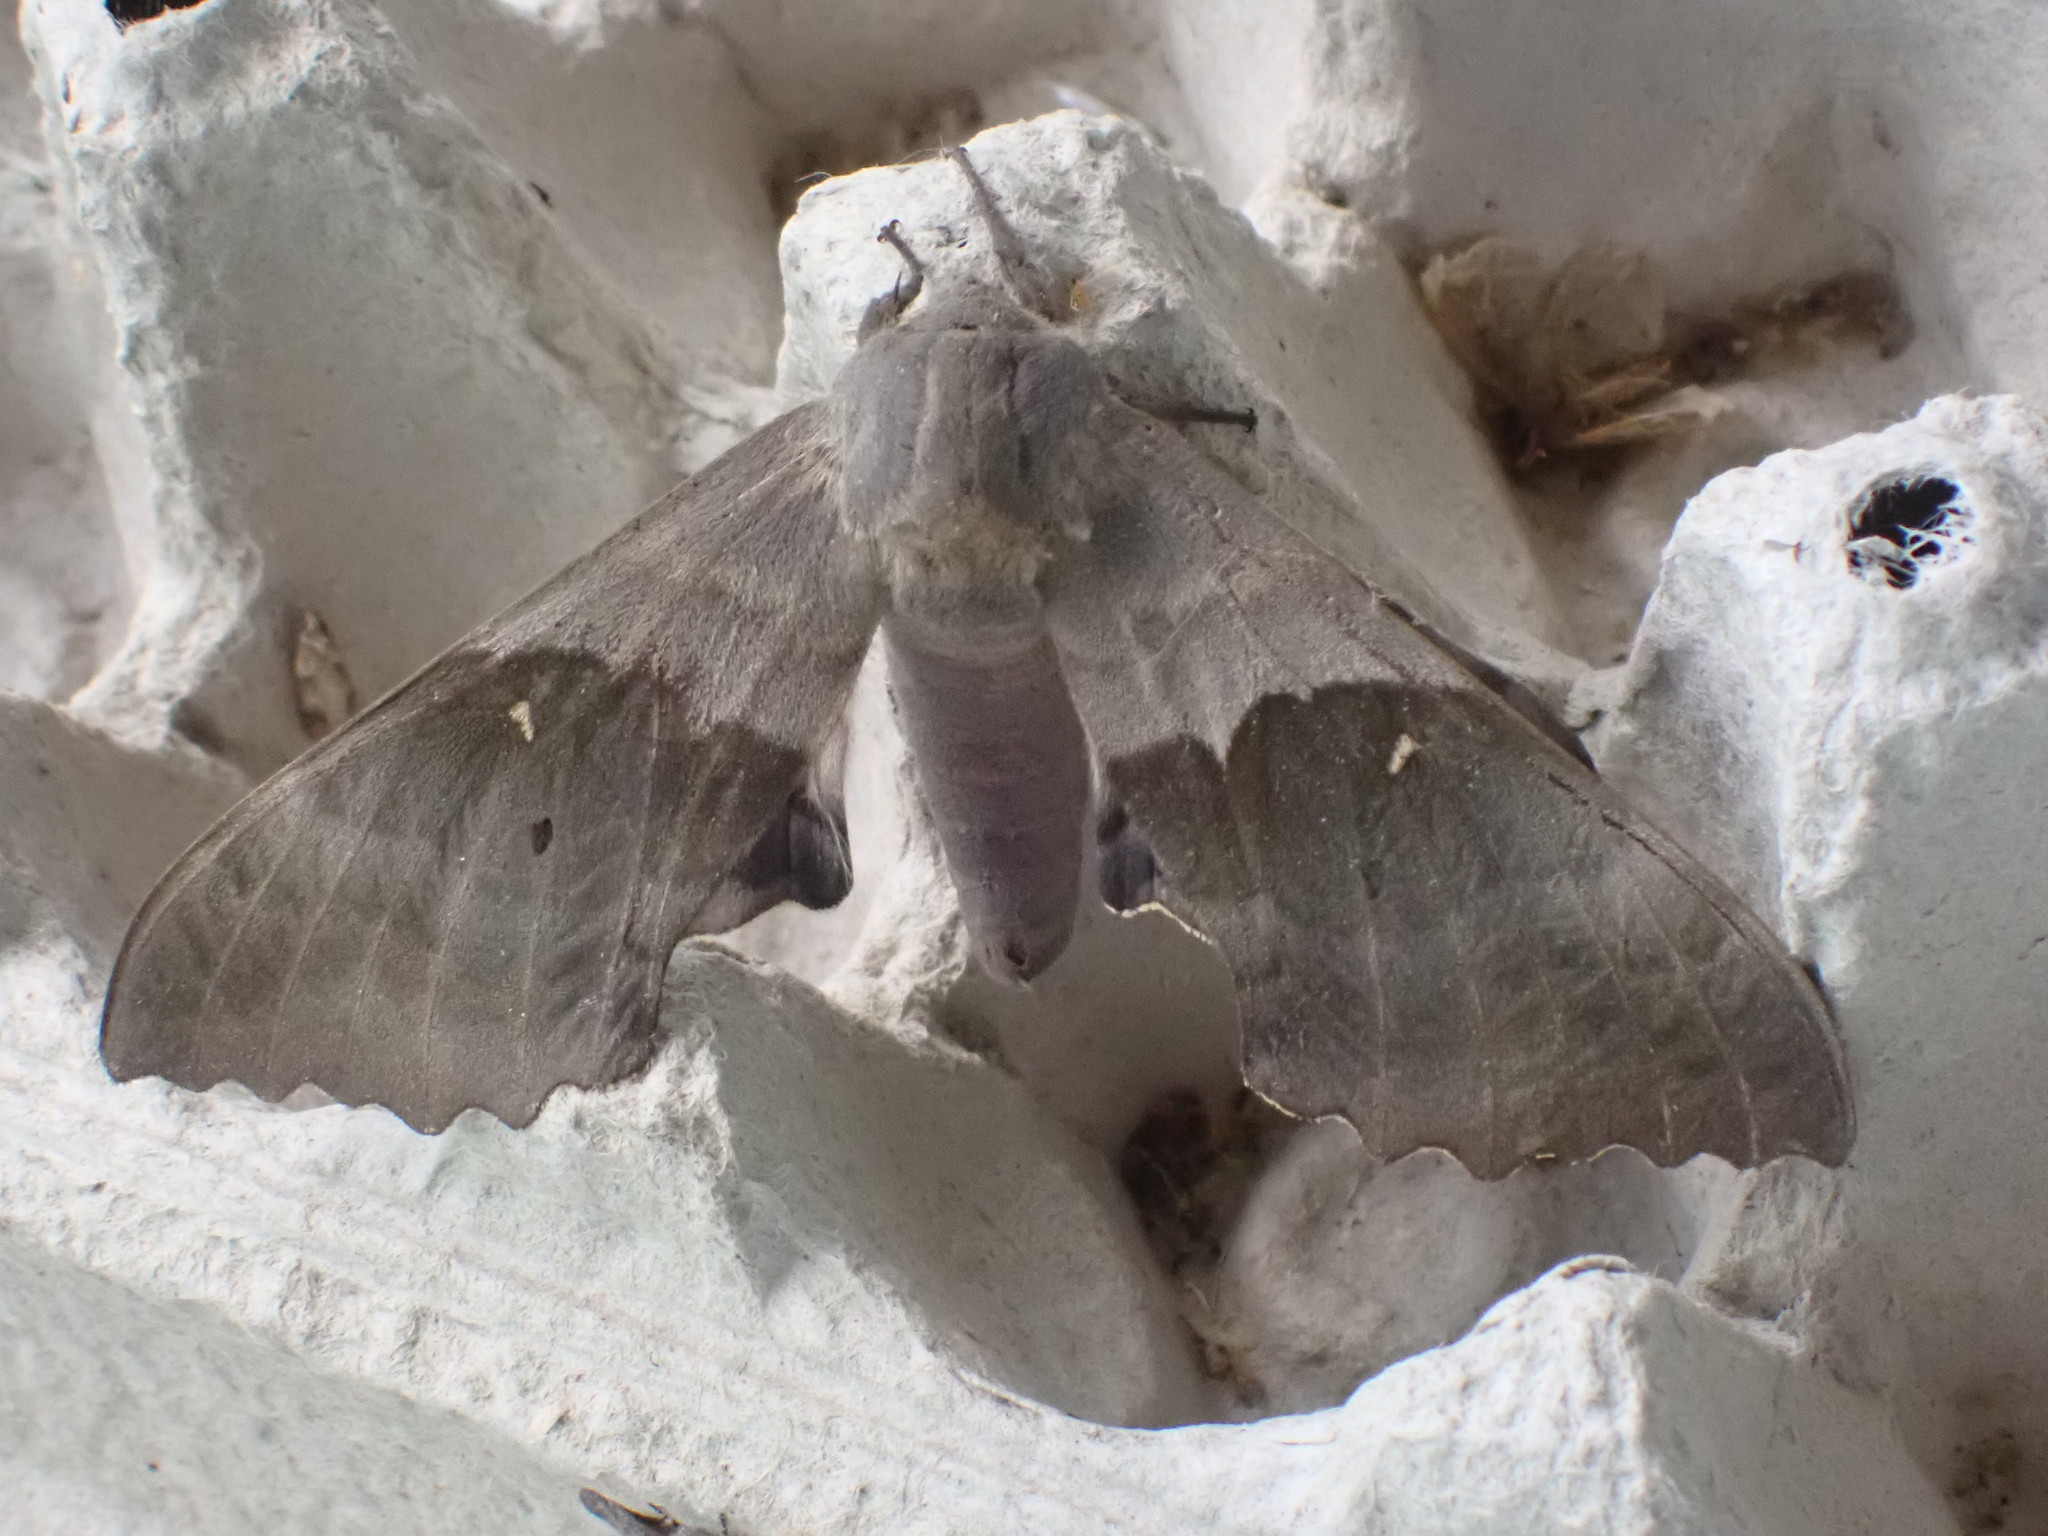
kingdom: Animalia
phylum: Arthropoda
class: Insecta
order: Lepidoptera
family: Sphingidae
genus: Pachysphinx
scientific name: Pachysphinx modesta
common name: Big poplar sphinx
